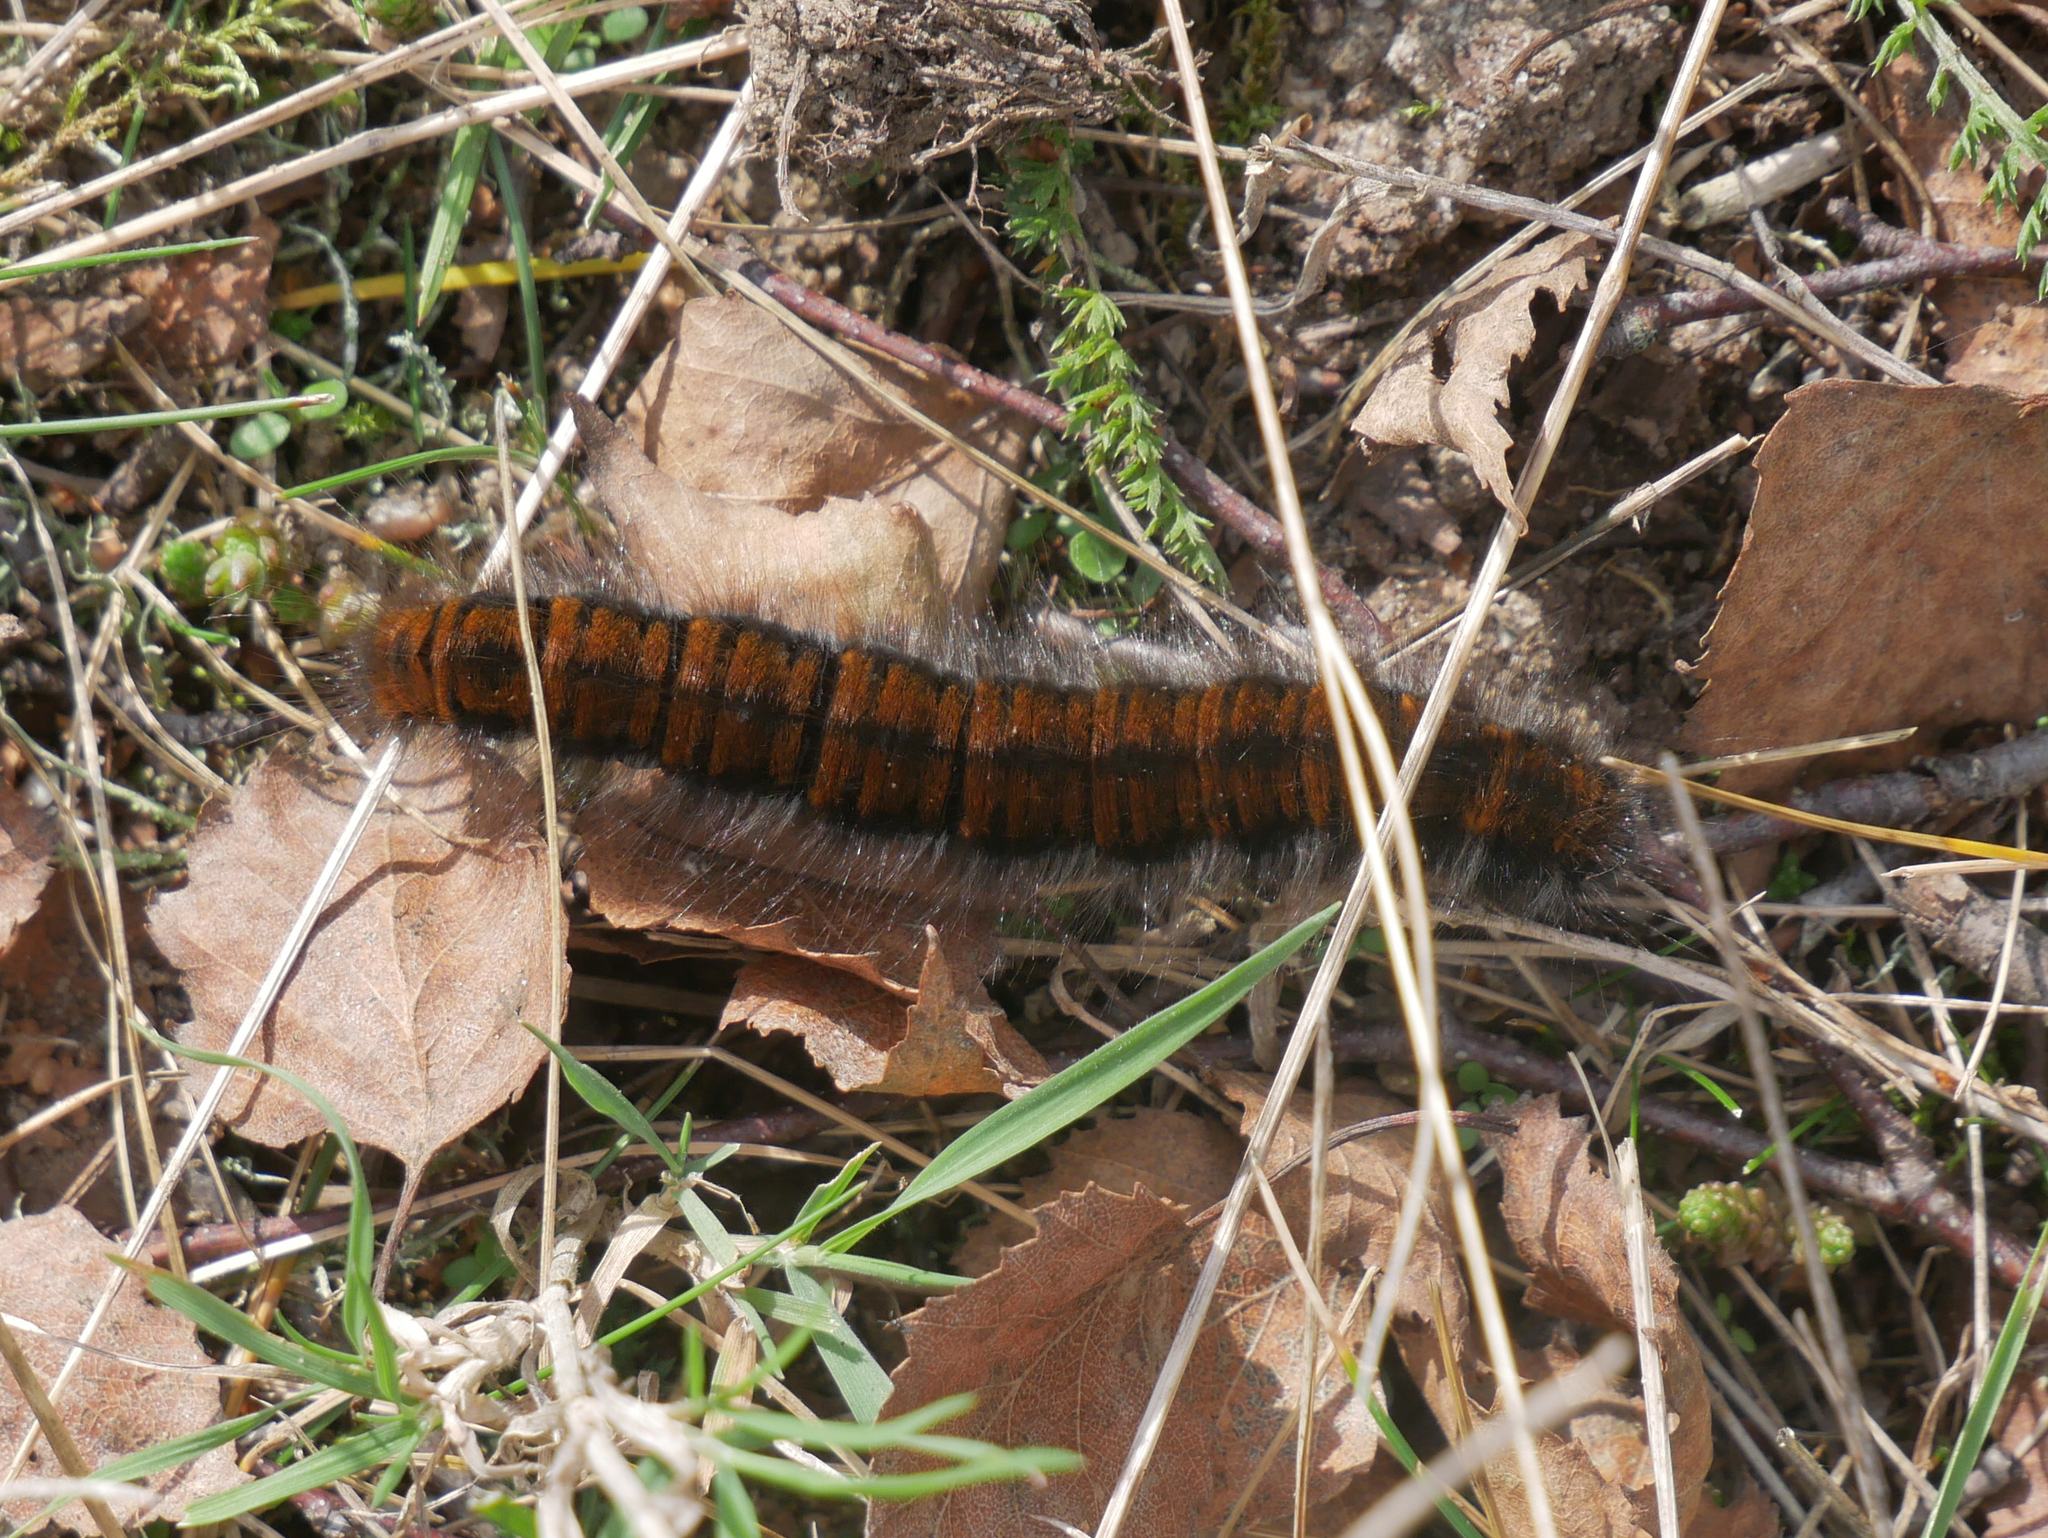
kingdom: Animalia
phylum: Arthropoda
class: Insecta
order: Lepidoptera
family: Lasiocampidae
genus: Macrothylacia
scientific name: Macrothylacia rubi
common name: Fox moth
